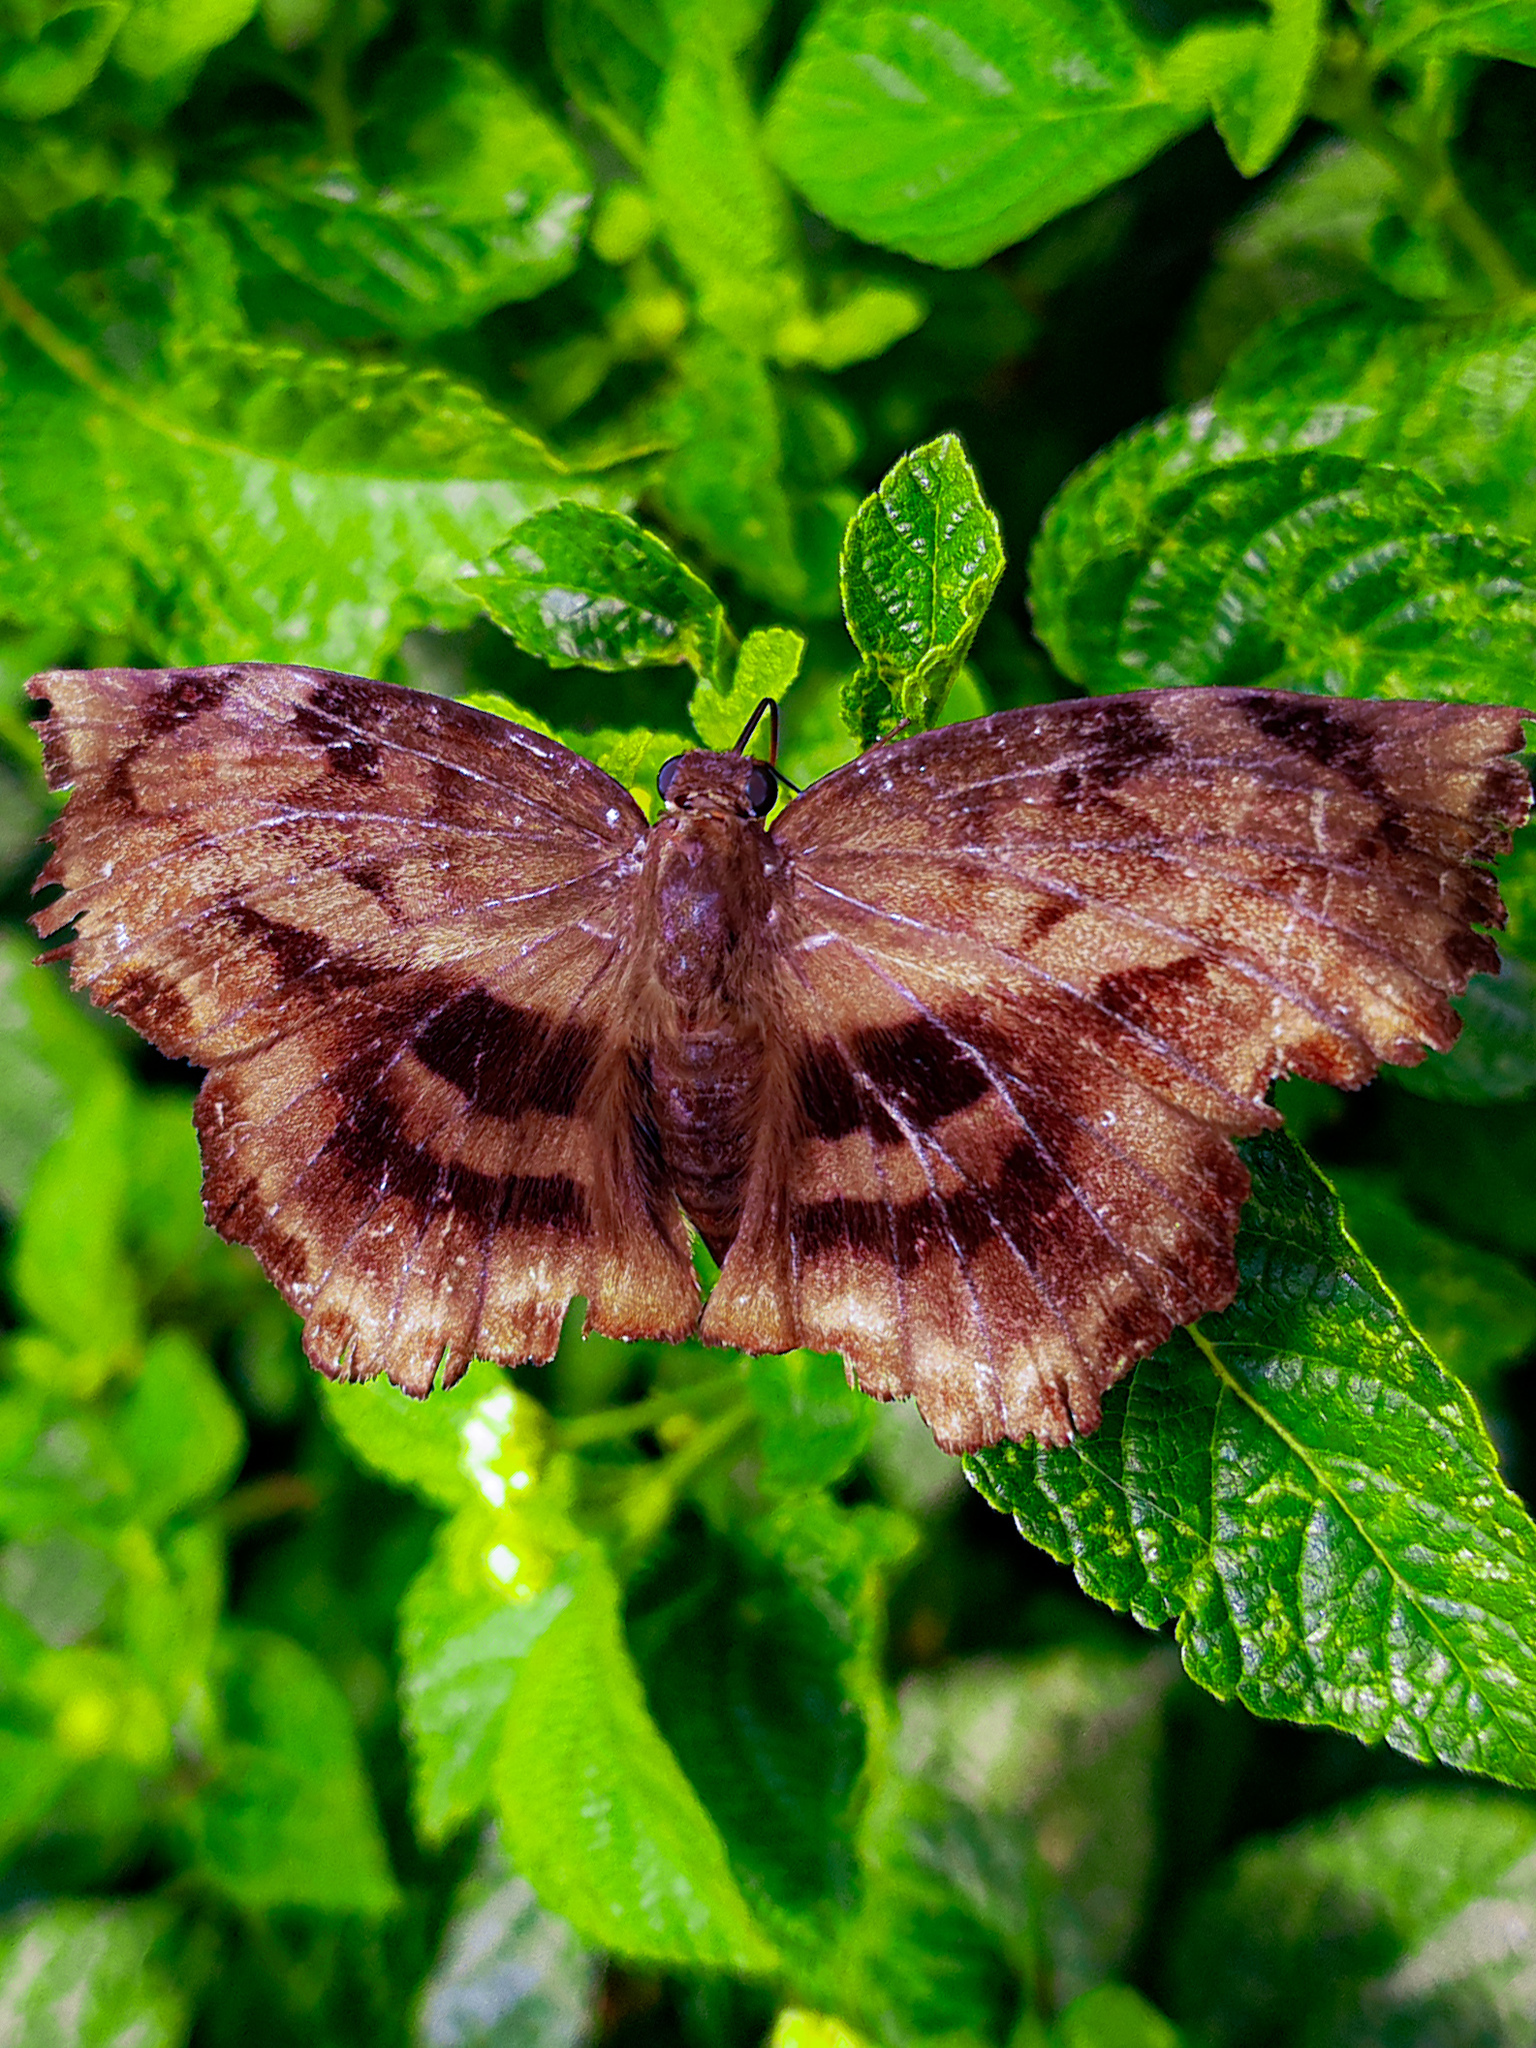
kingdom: Animalia
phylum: Arthropoda
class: Insecta
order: Lepidoptera
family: Hesperiidae
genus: Achlyodes
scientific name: Achlyodes busirus
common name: Giant sicklewing
